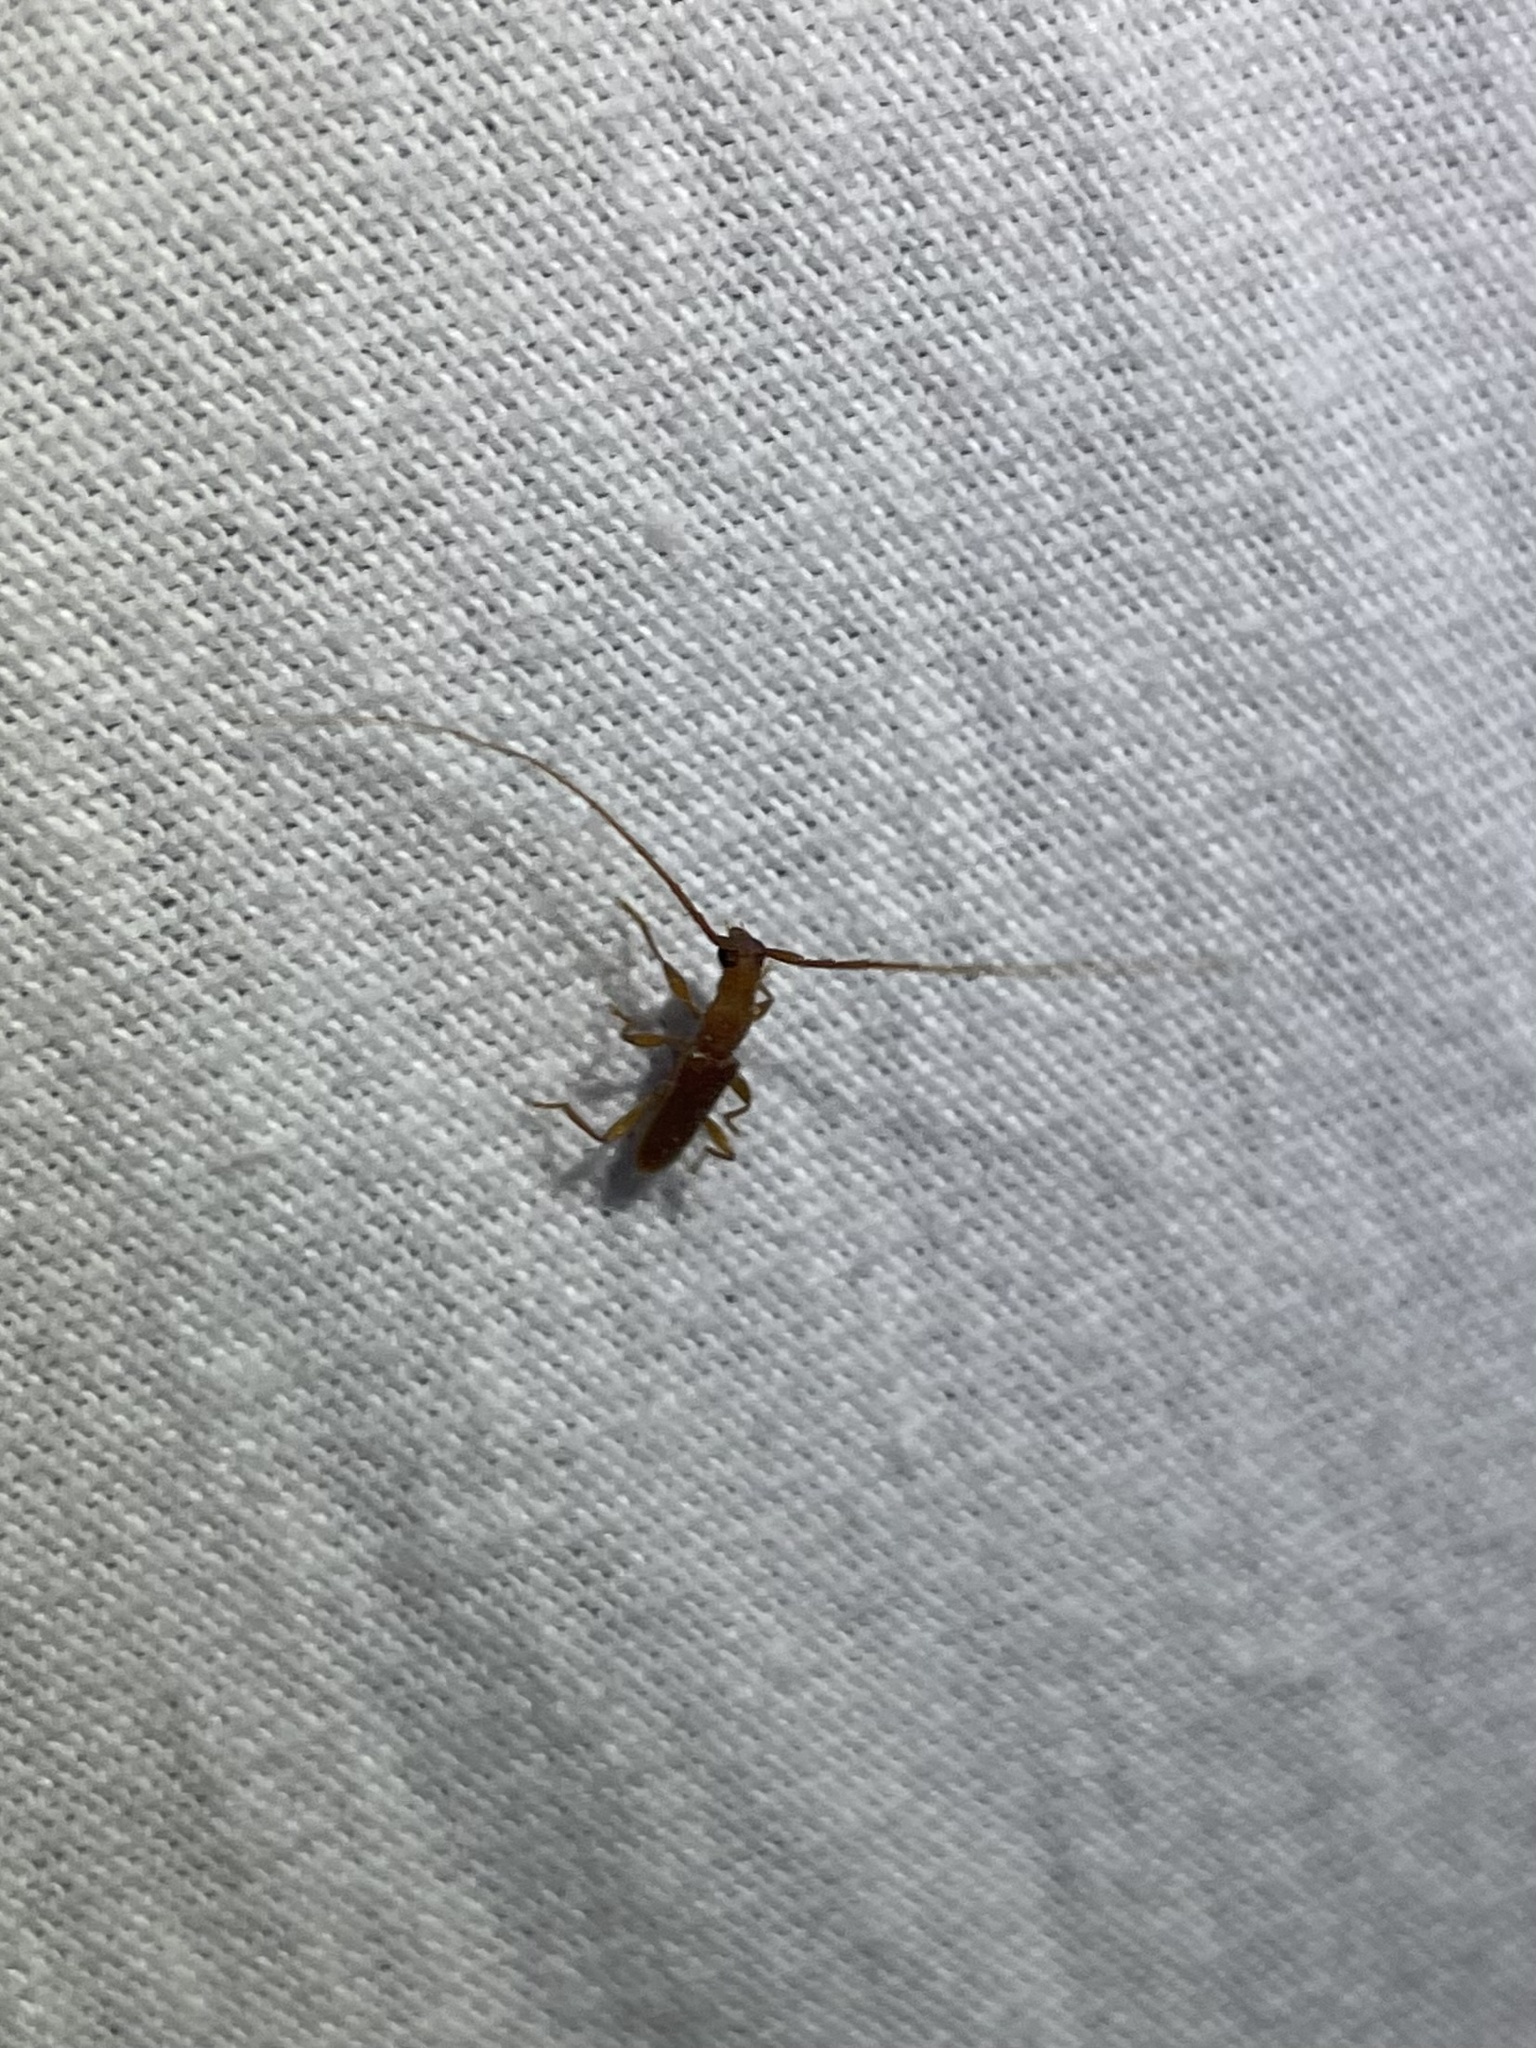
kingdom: Animalia
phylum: Arthropoda
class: Insecta
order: Coleoptera
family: Cerambycidae
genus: Hypexilis
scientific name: Hypexilis pallida
